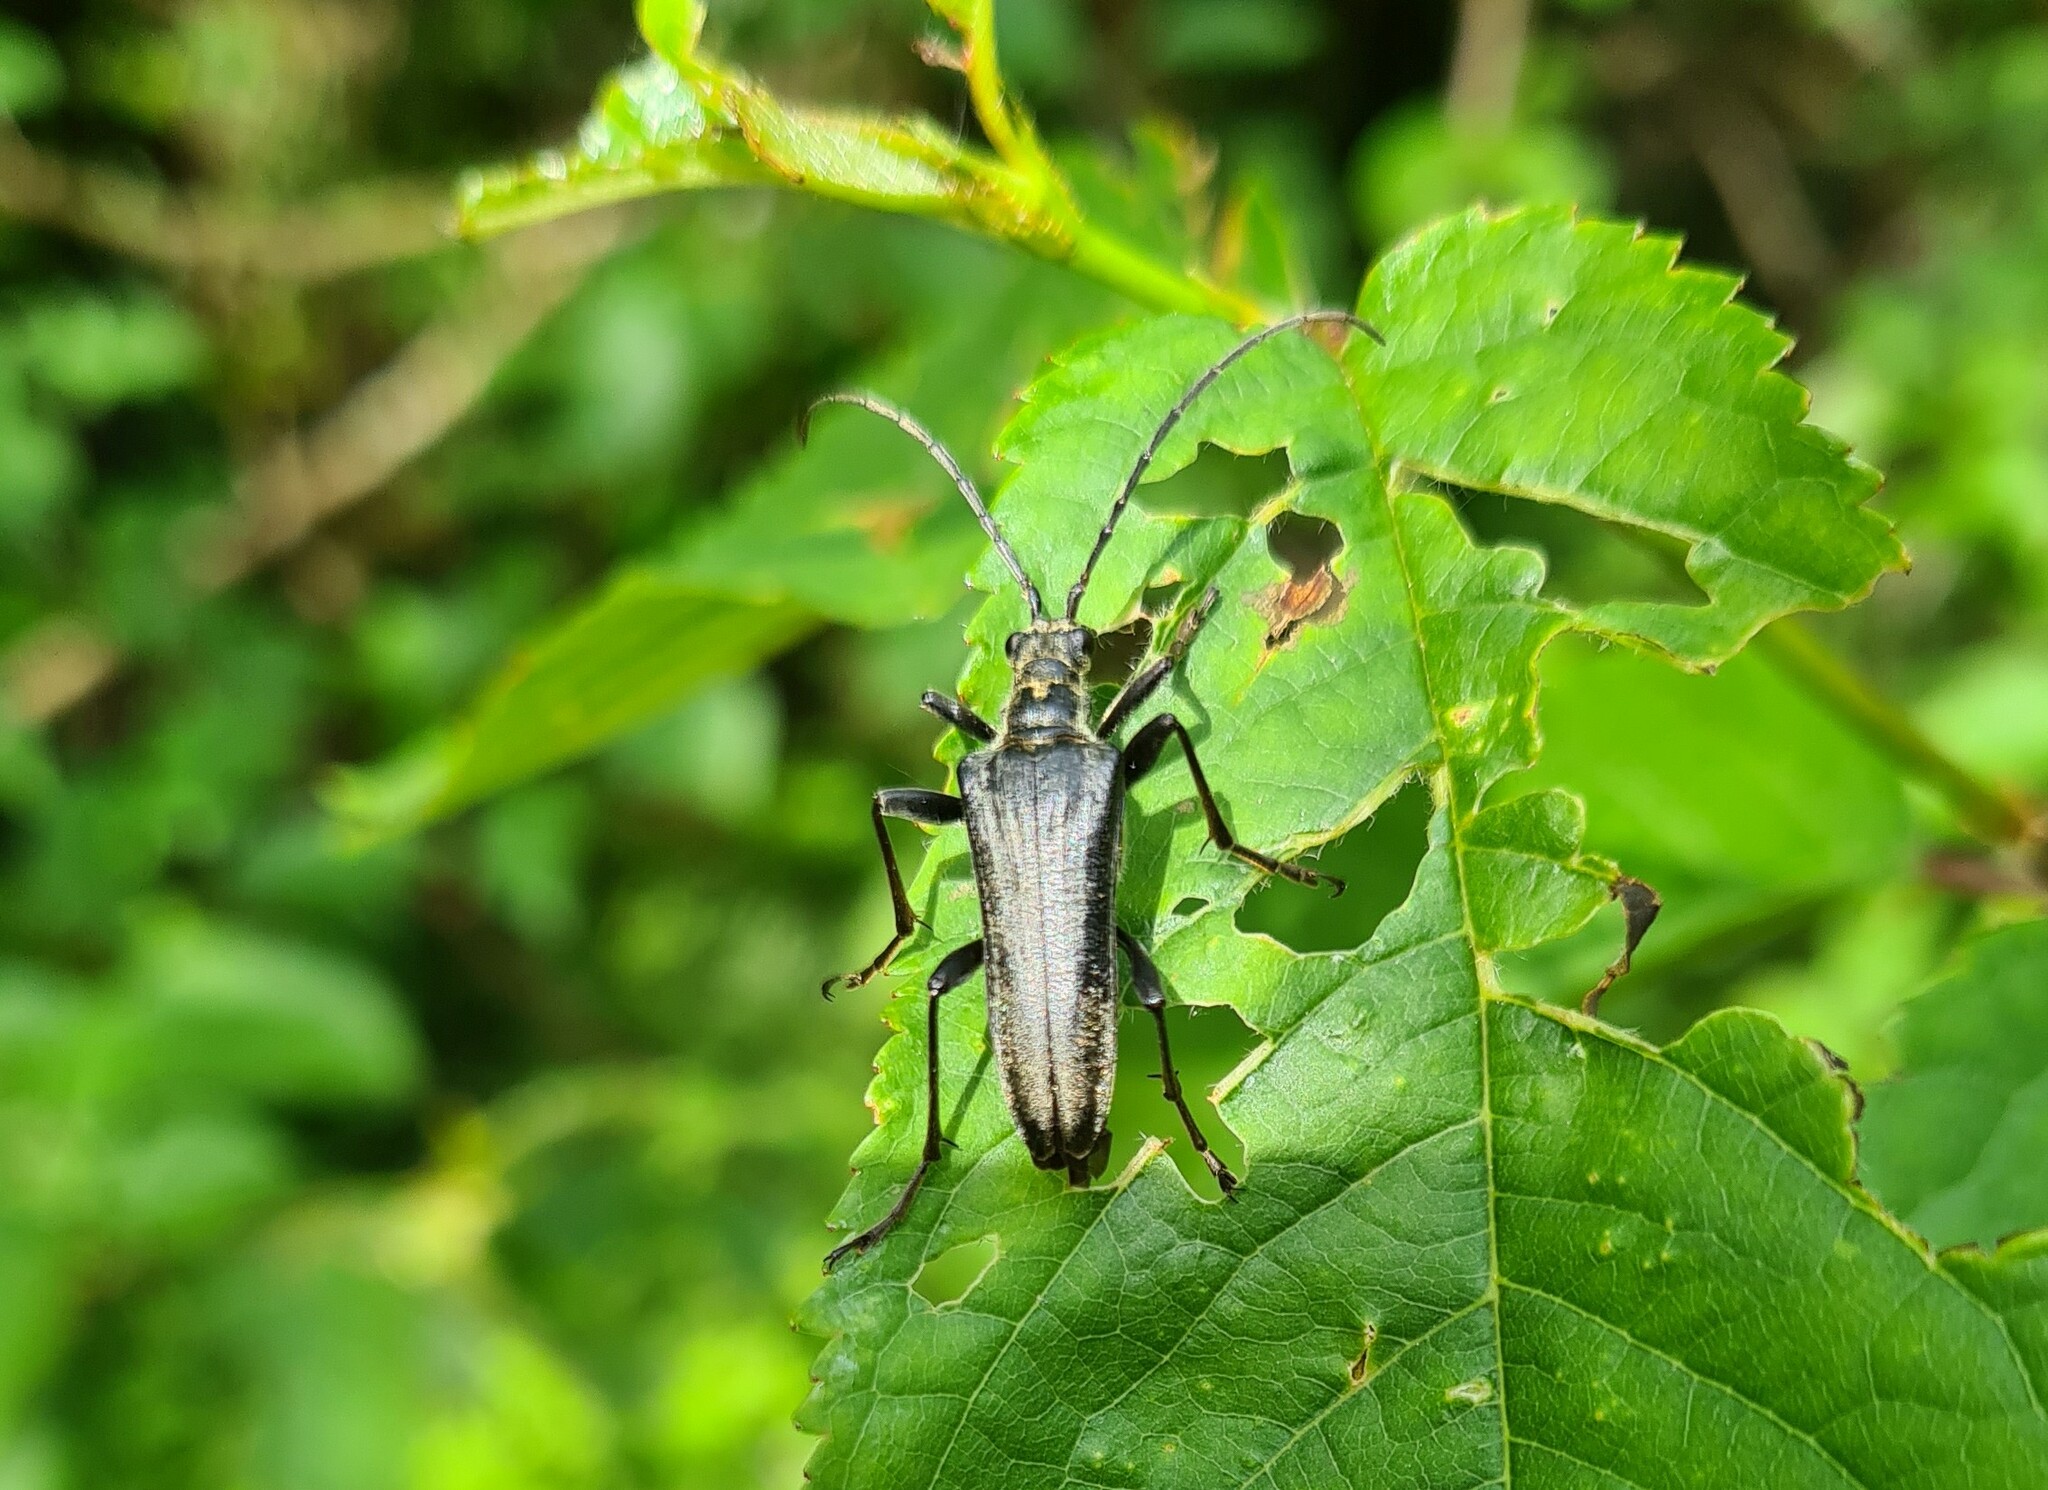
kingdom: Animalia
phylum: Arthropoda
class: Insecta
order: Coleoptera
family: Cerambycidae
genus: Stenocorus
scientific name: Stenocorus meridianus
